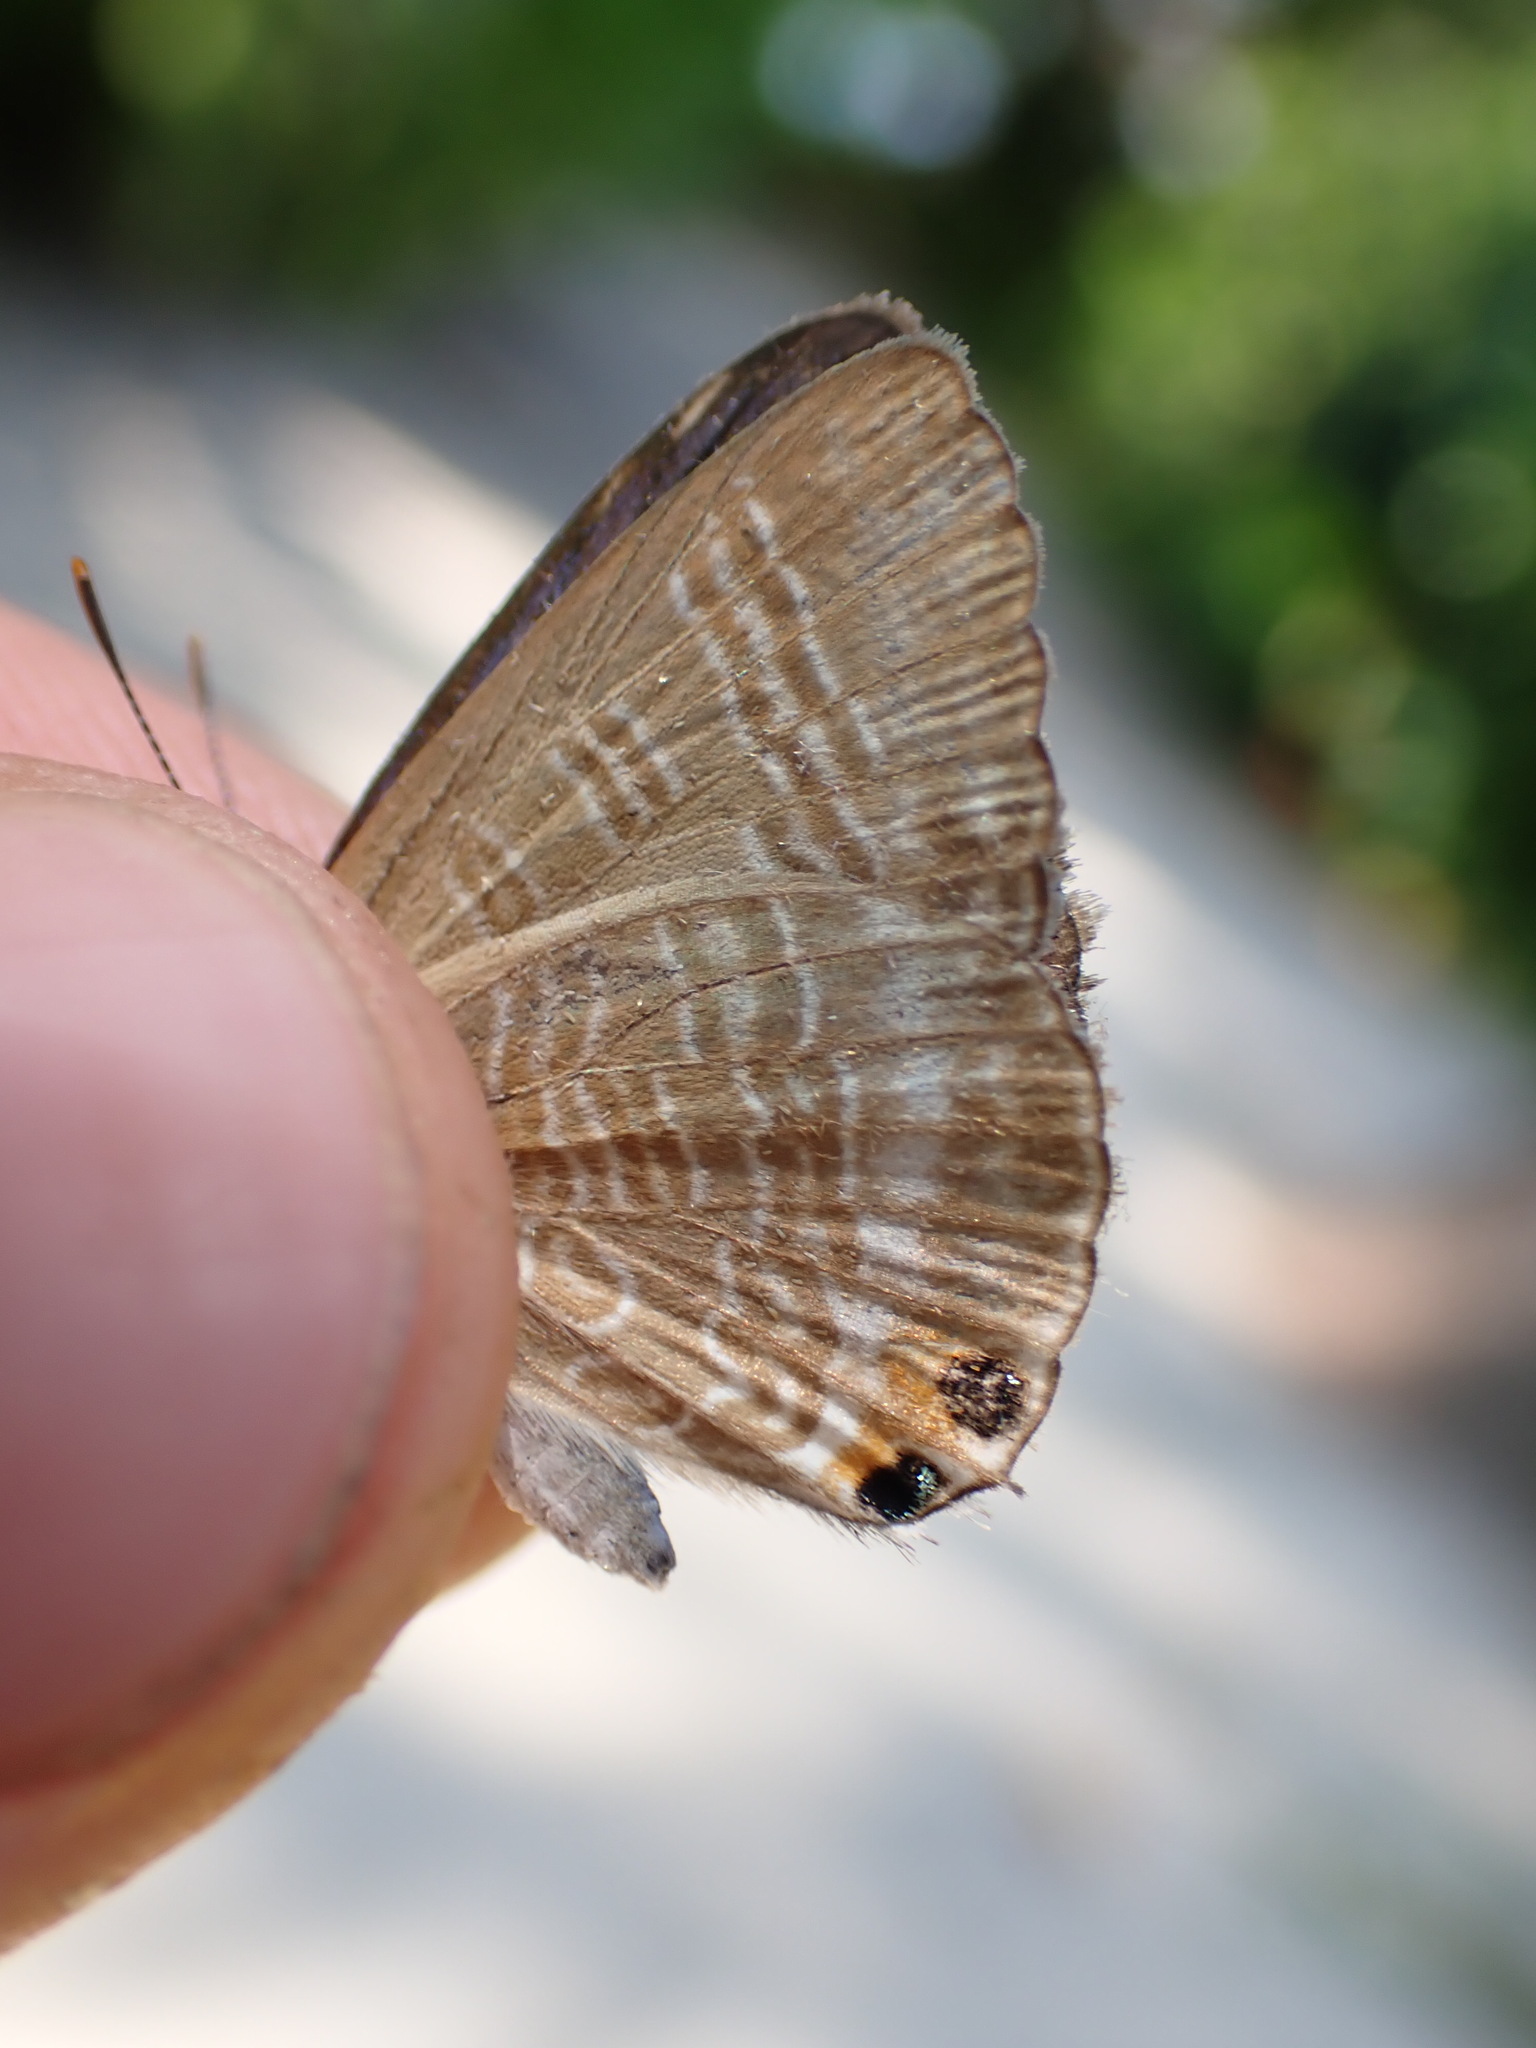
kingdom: Animalia
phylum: Arthropoda
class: Insecta
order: Lepidoptera
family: Lycaenidae
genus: Lampides
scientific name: Lampides boeticus
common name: Long-tailed blue
